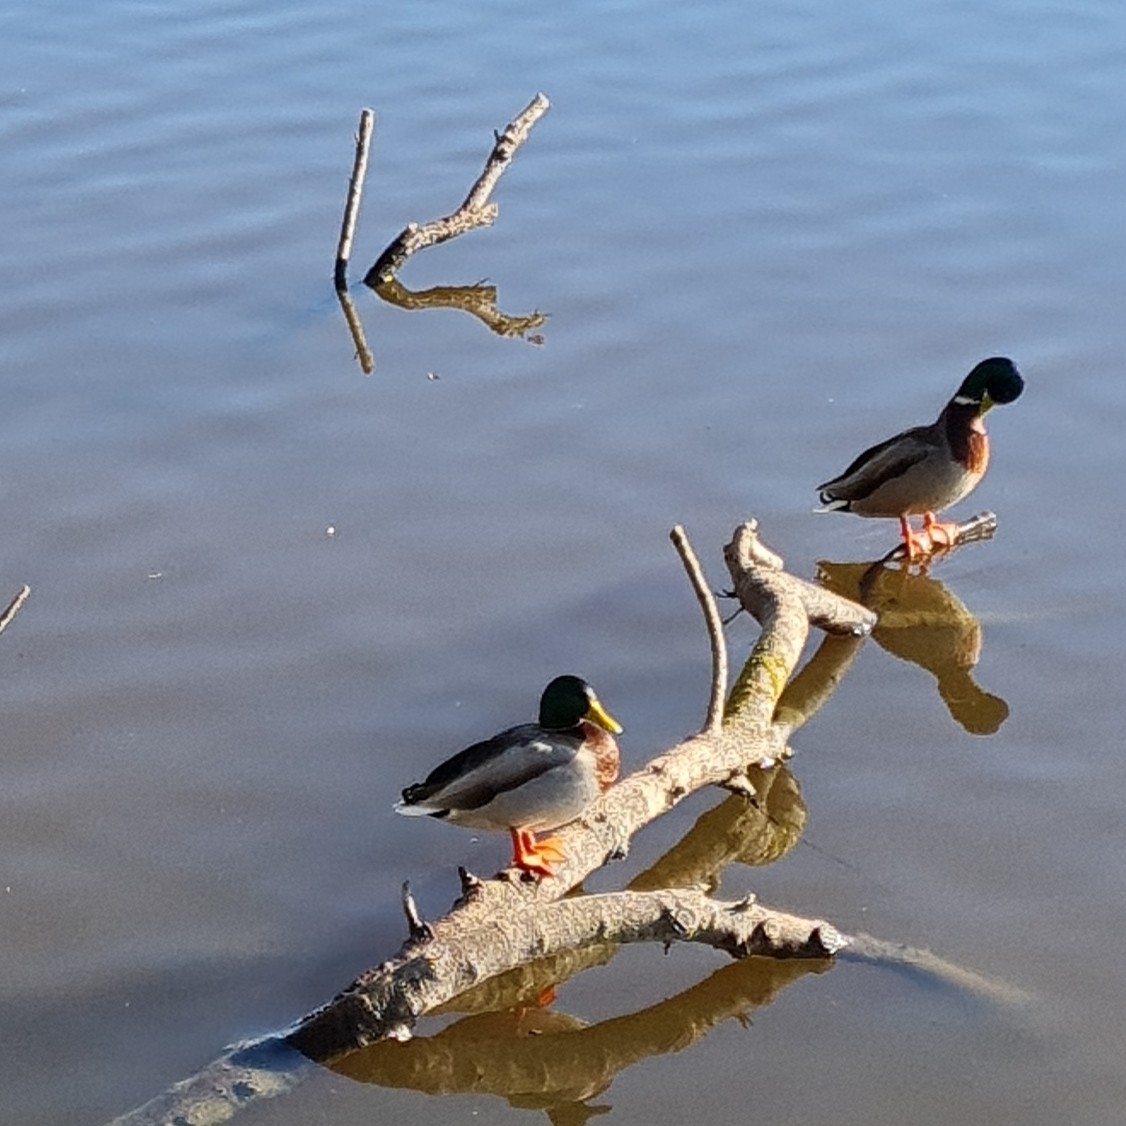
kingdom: Animalia
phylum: Chordata
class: Aves
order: Anseriformes
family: Anatidae
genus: Anas
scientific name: Anas platyrhynchos
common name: Mallard
